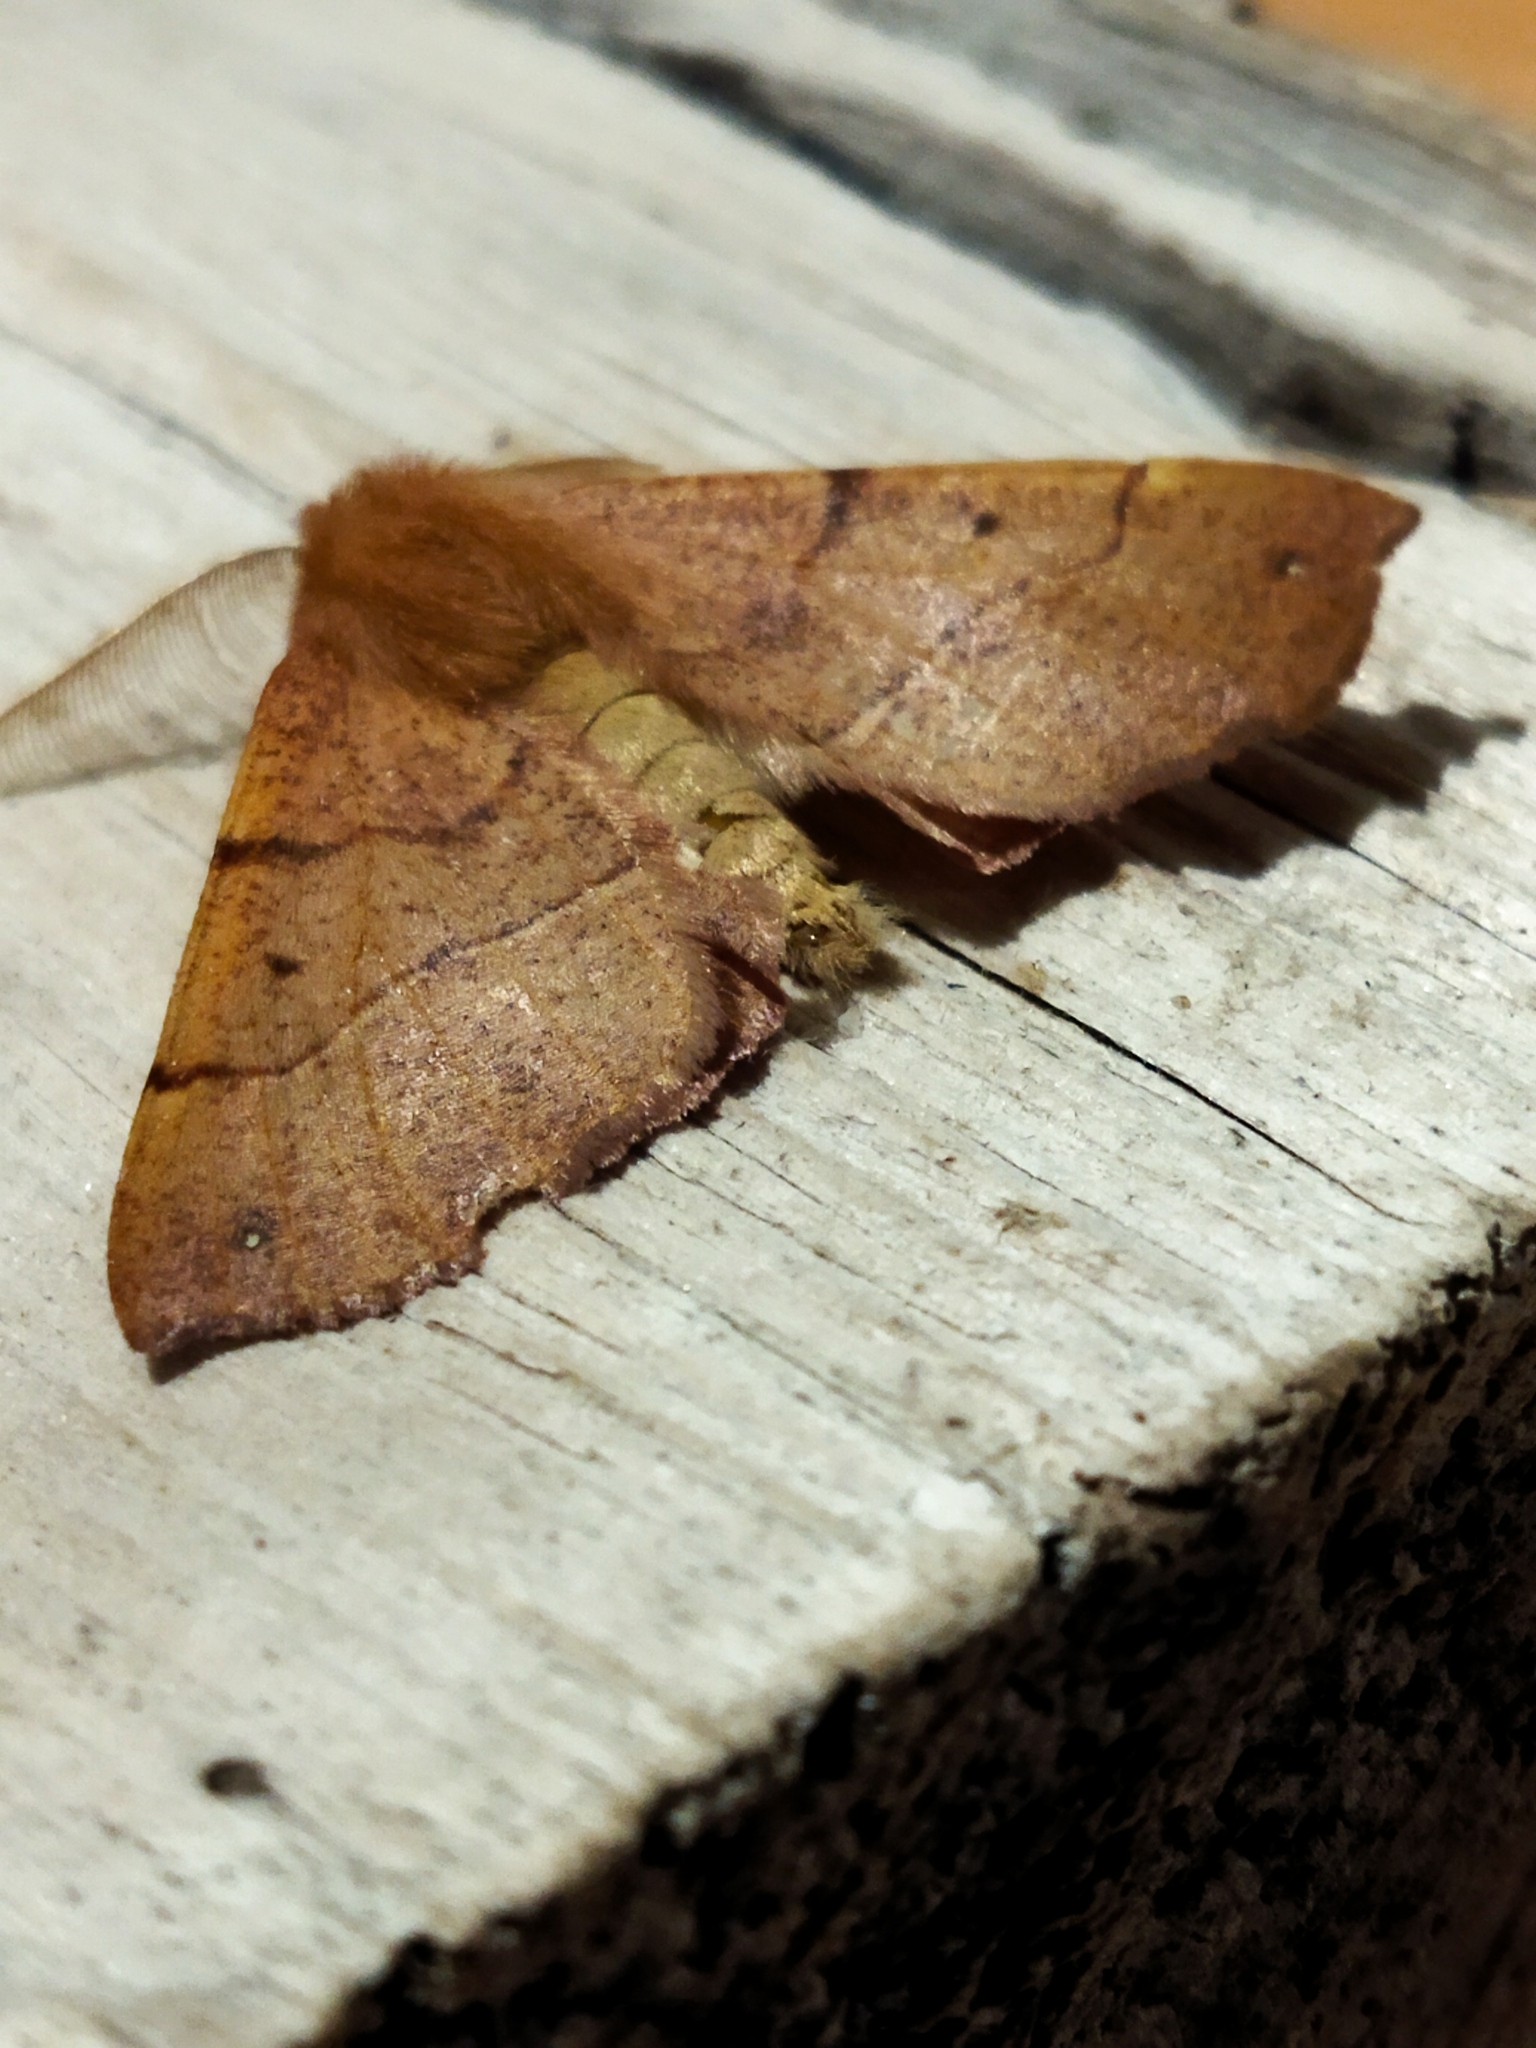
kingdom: Animalia
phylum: Arthropoda
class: Insecta
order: Lepidoptera
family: Geometridae
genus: Colotois
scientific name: Colotois pennaria
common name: Feathered thorn
